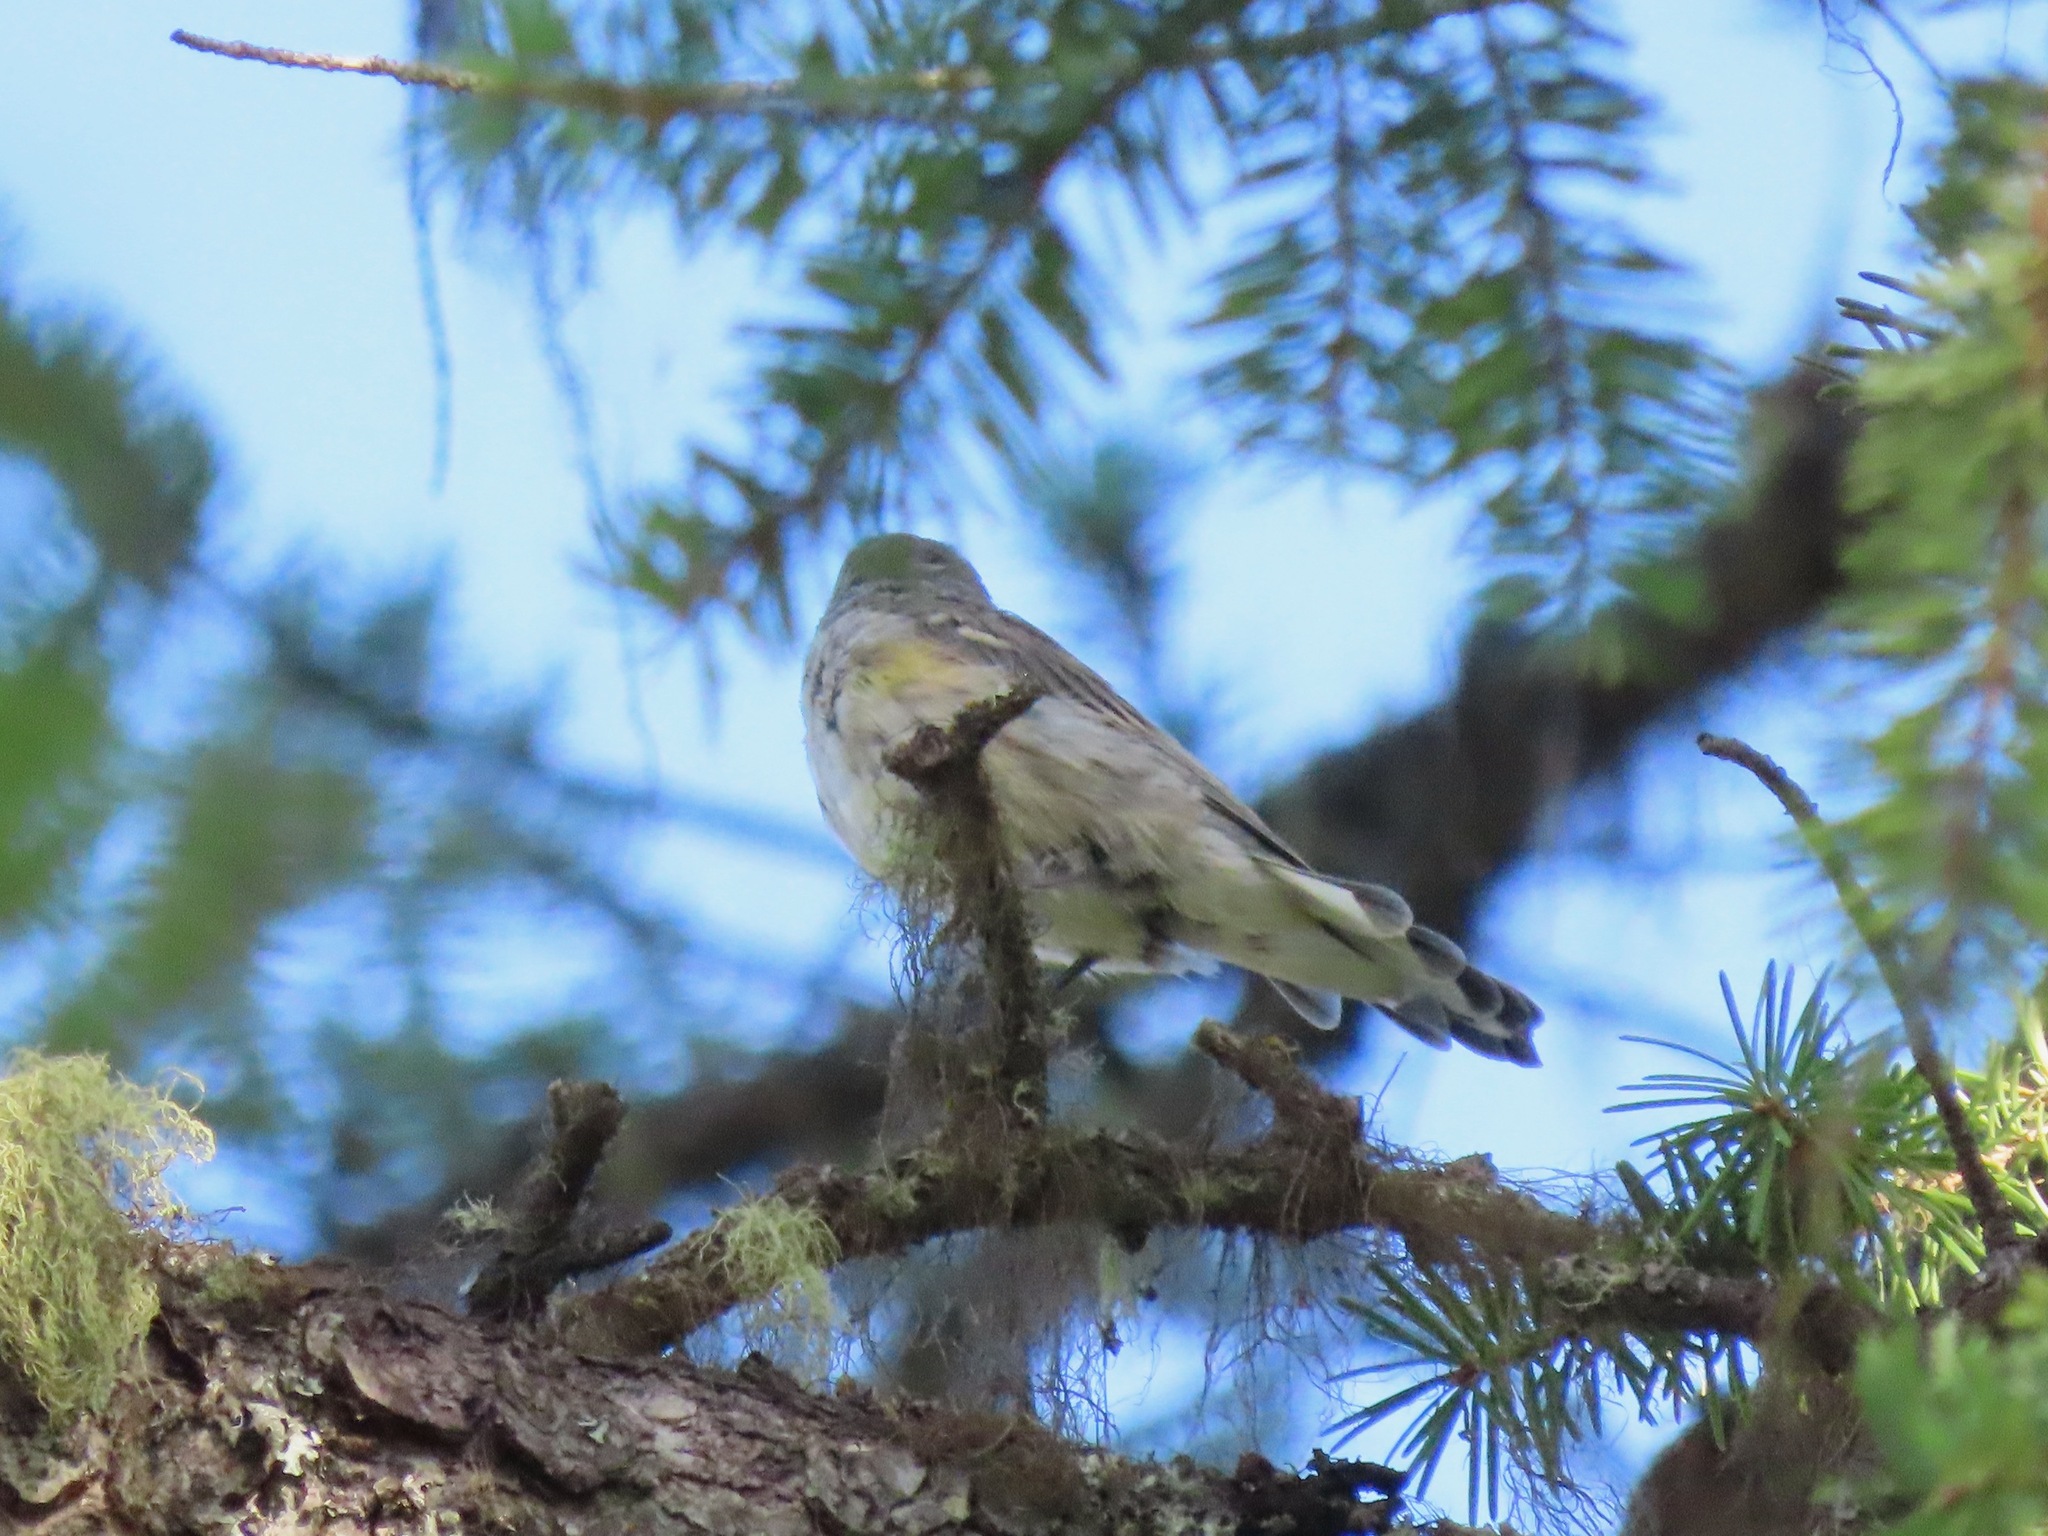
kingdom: Animalia
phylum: Chordata
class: Aves
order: Passeriformes
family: Parulidae
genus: Setophaga
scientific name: Setophaga coronata
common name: Myrtle warbler
